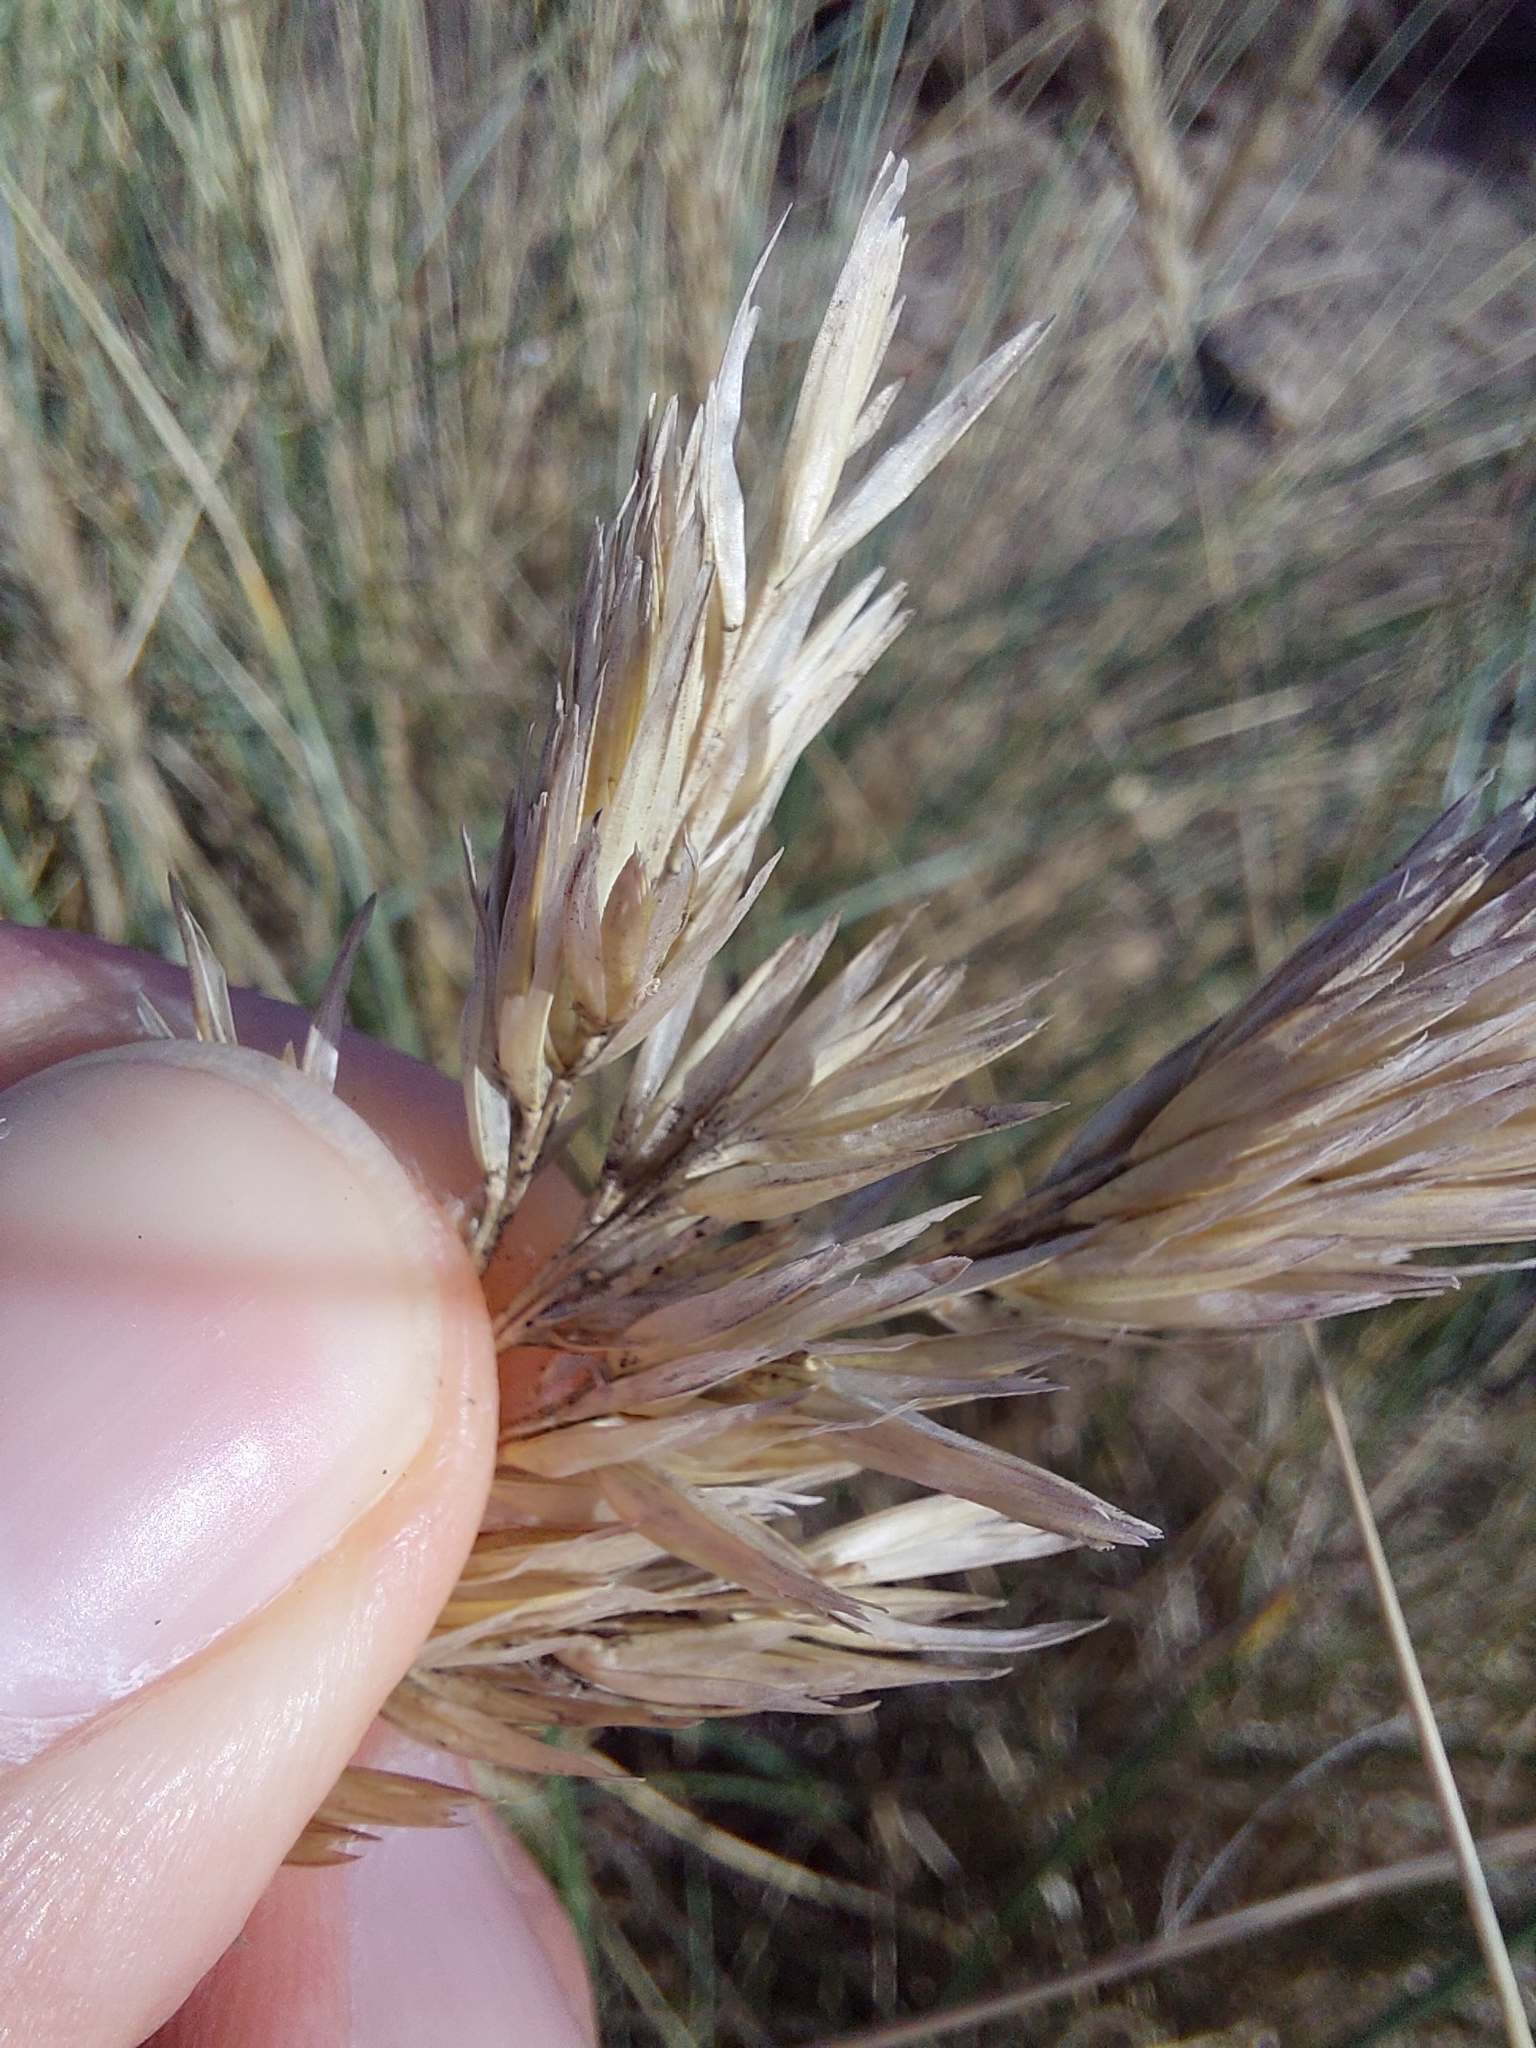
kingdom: Plantae
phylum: Tracheophyta
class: Liliopsida
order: Poales
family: Poaceae
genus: Calamagrostis
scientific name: Calamagrostis arenaria
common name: European beachgrass
